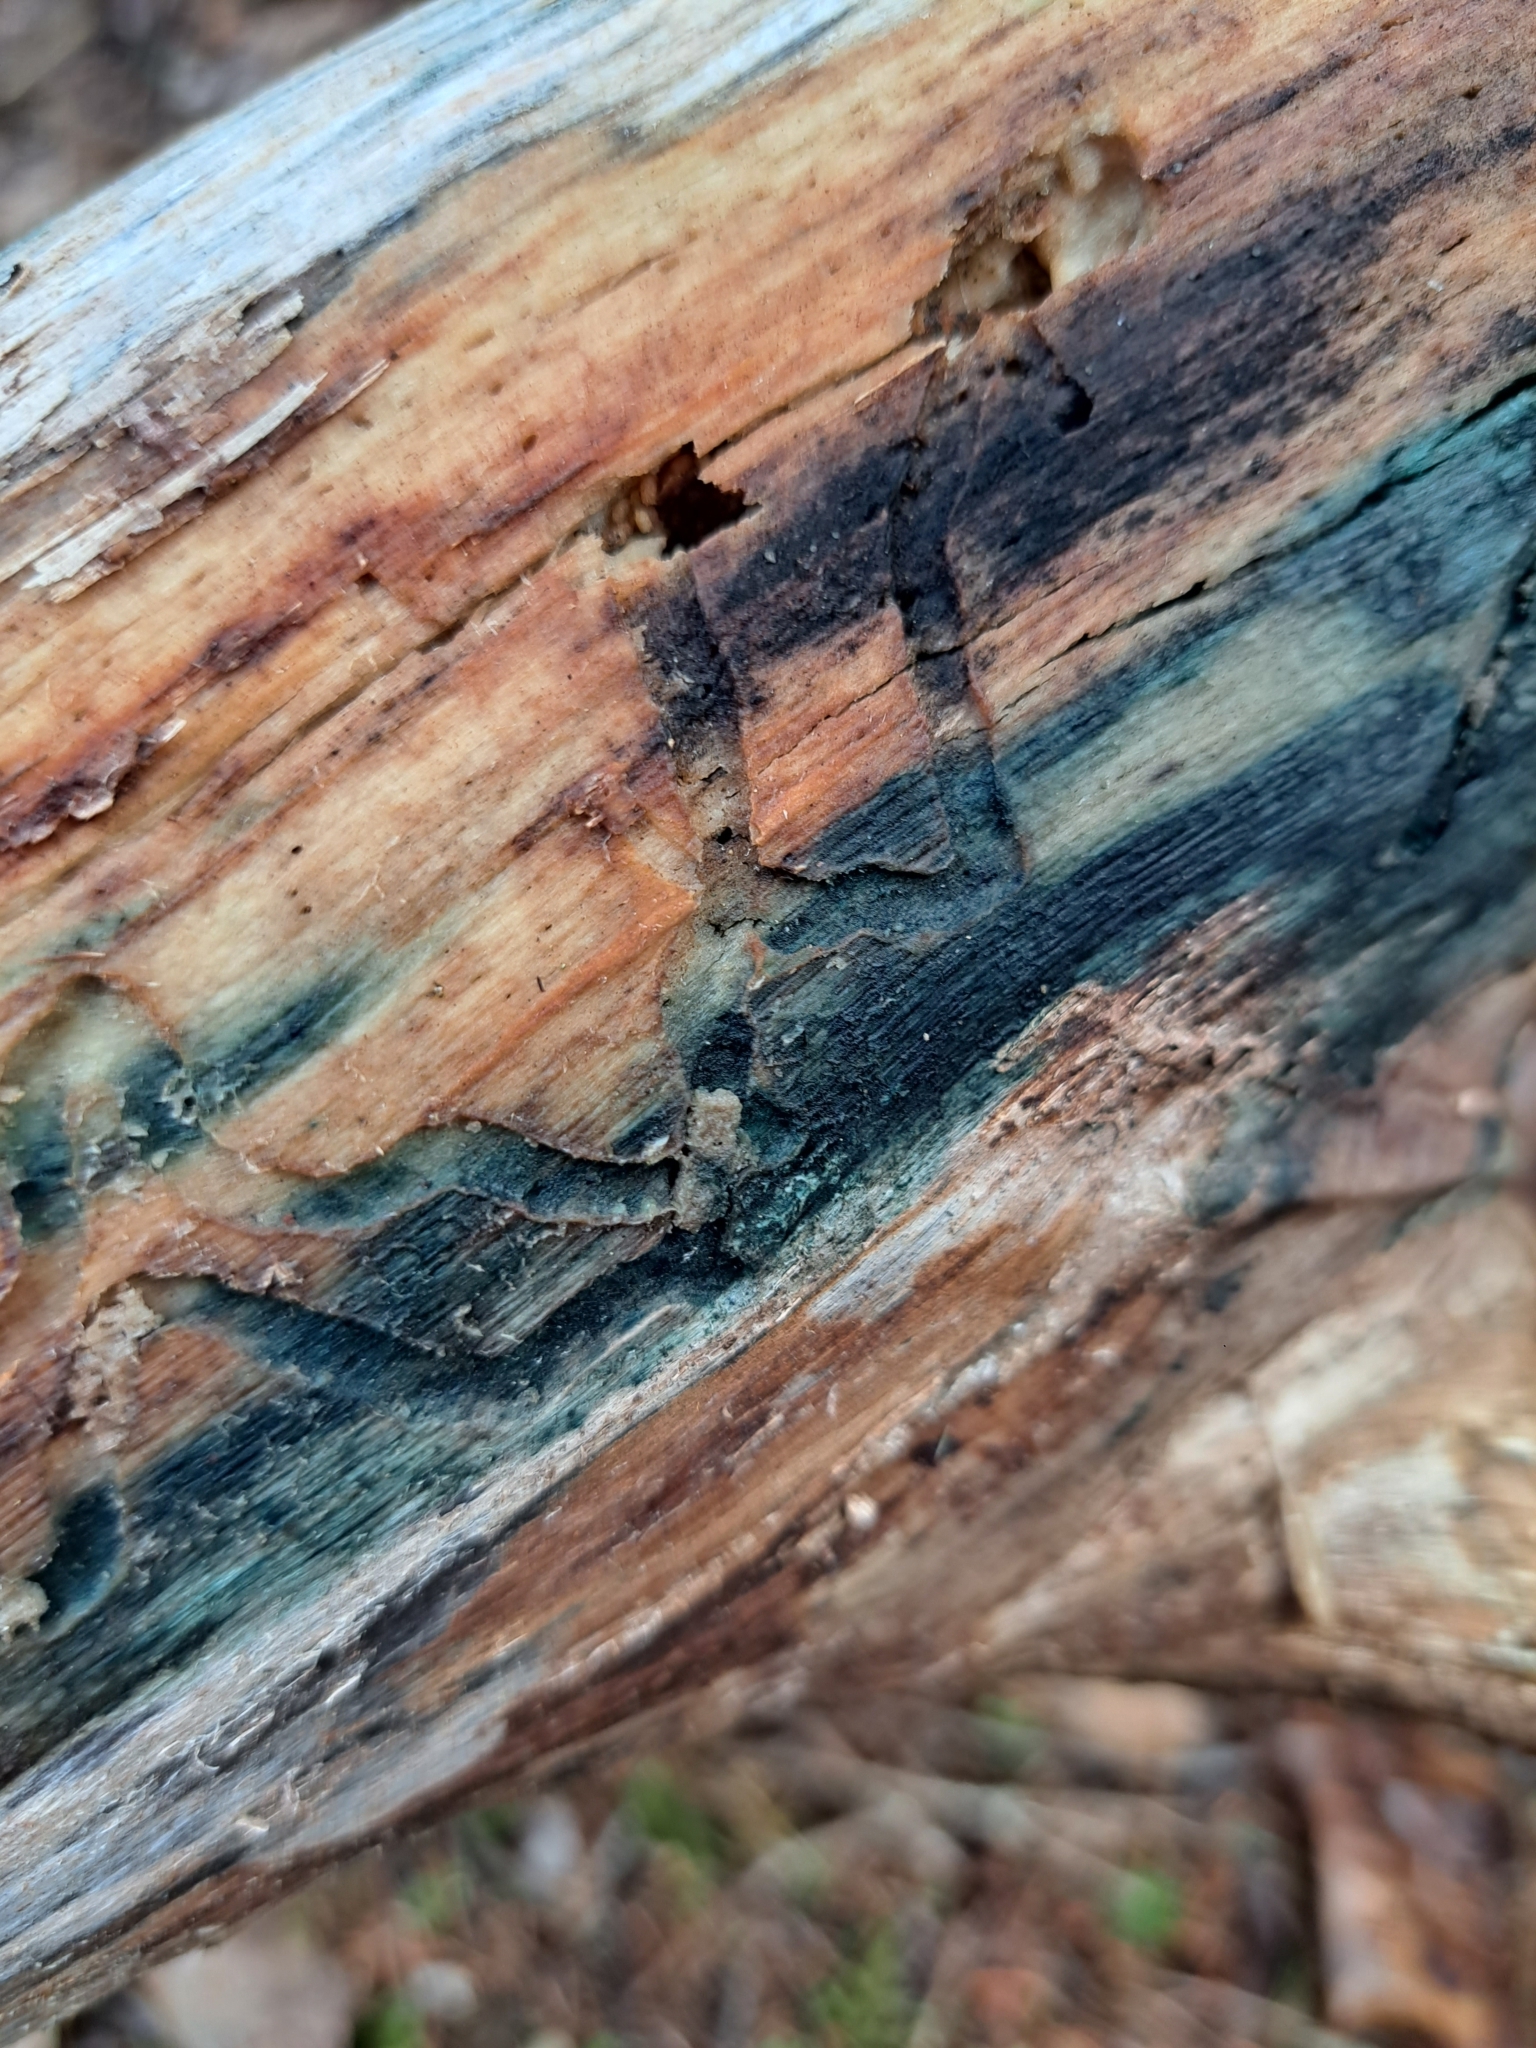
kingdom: Fungi
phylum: Ascomycota
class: Leotiomycetes
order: Helotiales
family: Chlorociboriaceae
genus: Chlorociboria
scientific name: Chlorociboria
